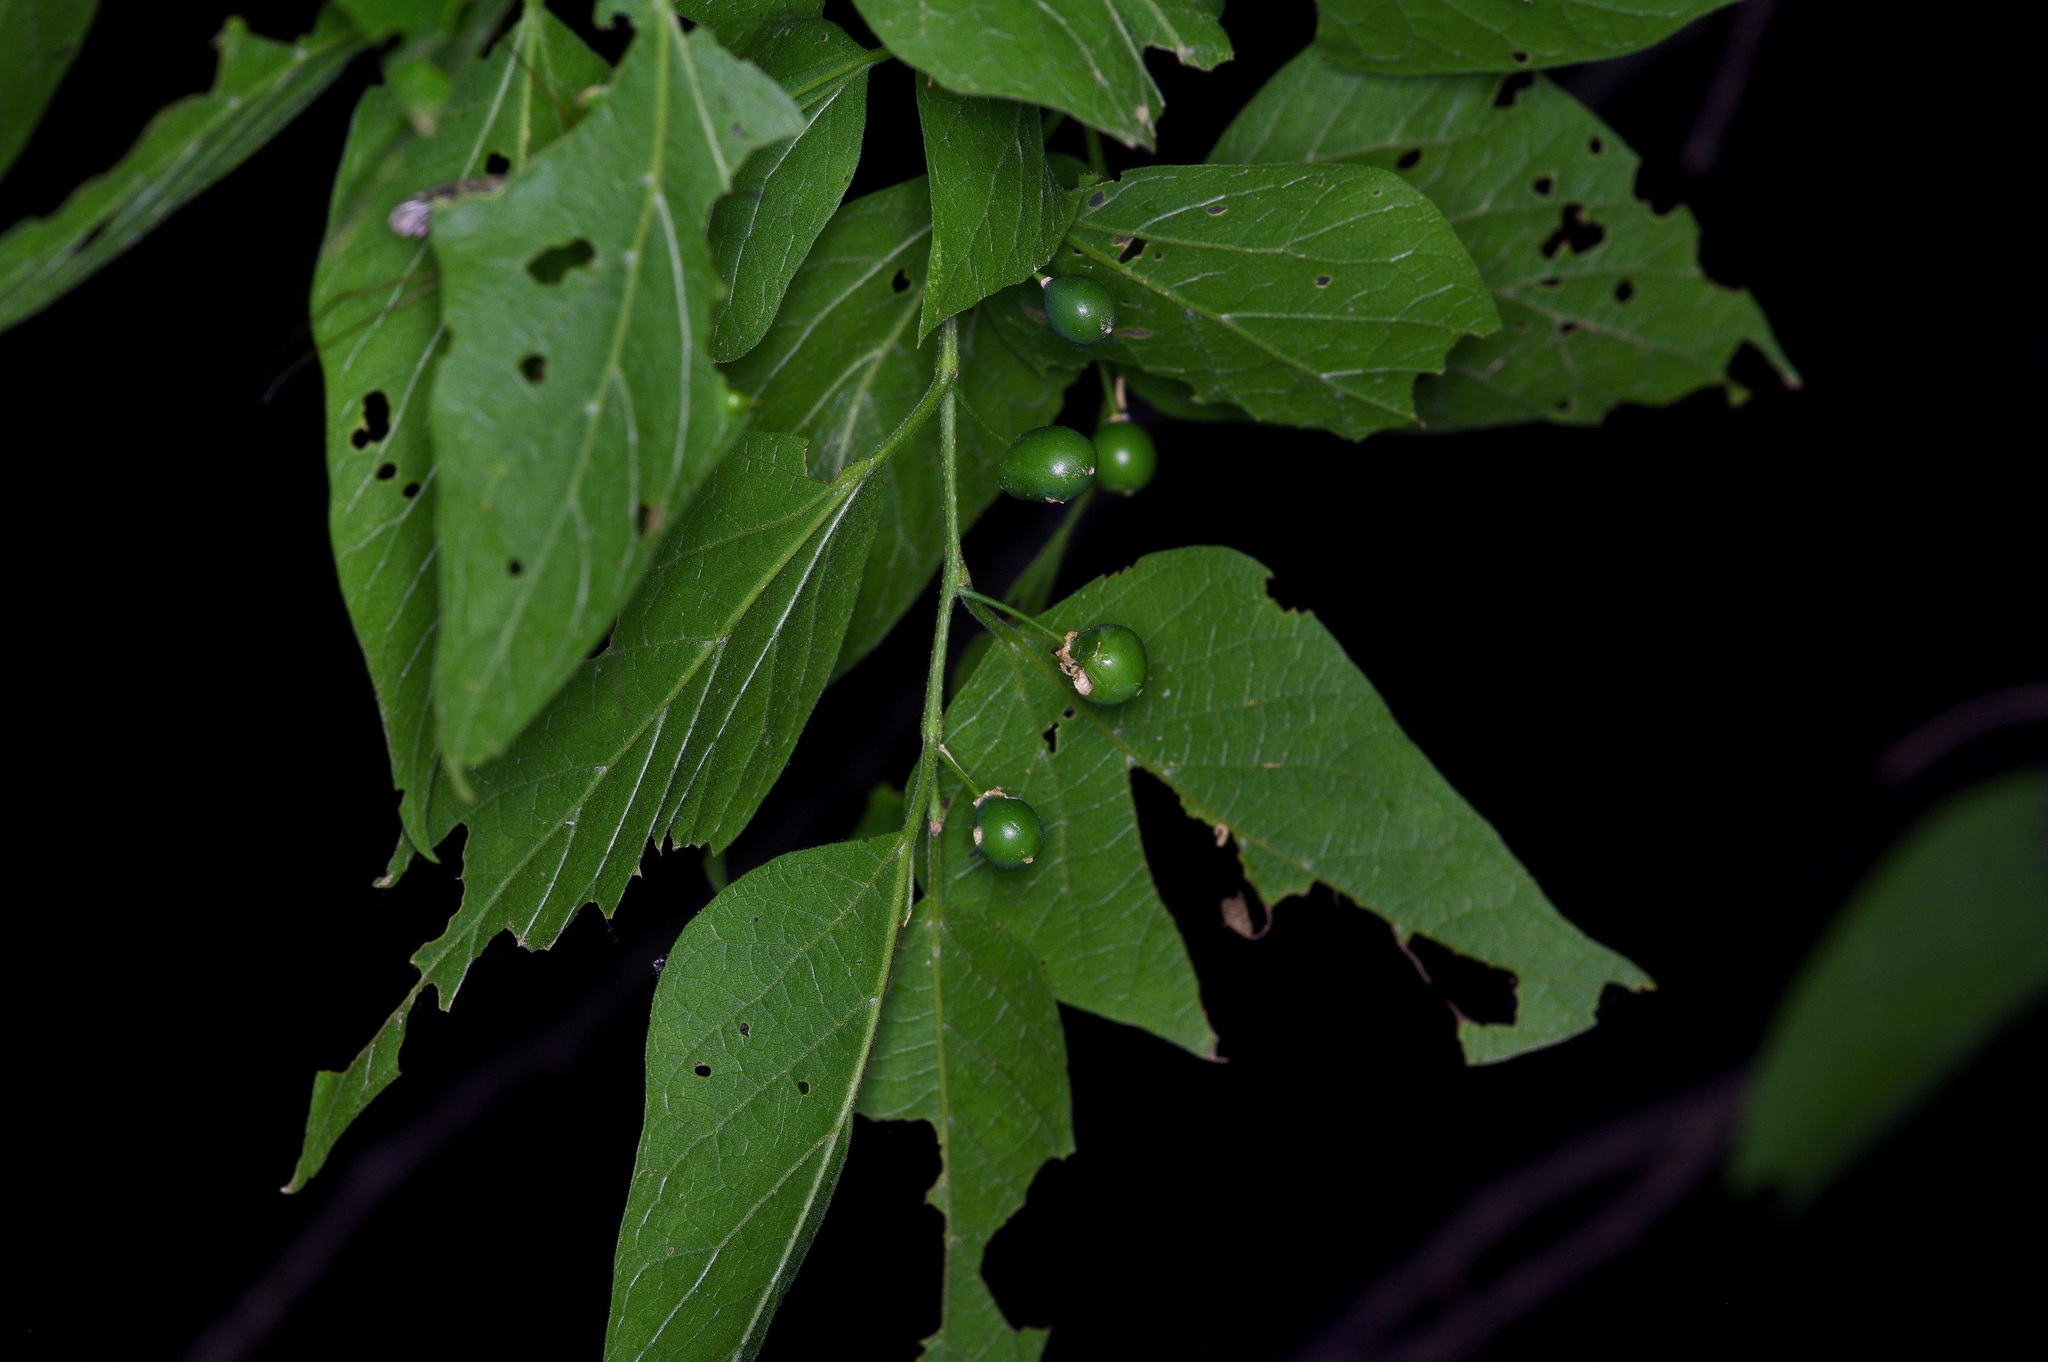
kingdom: Plantae
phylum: Tracheophyta
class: Magnoliopsida
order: Rosales
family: Cannabaceae
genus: Celtis
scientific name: Celtis laevigata
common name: Sugarberry
